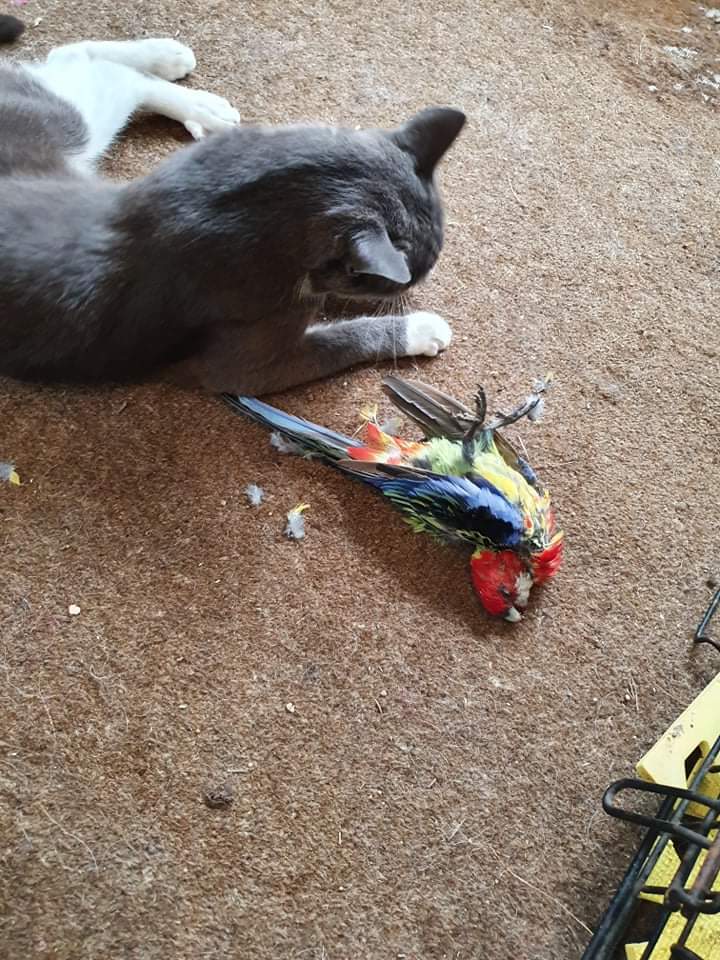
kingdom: Animalia
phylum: Chordata
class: Aves
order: Psittaciformes
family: Psittacidae
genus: Platycercus
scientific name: Platycercus eximius
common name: Eastern rosella
